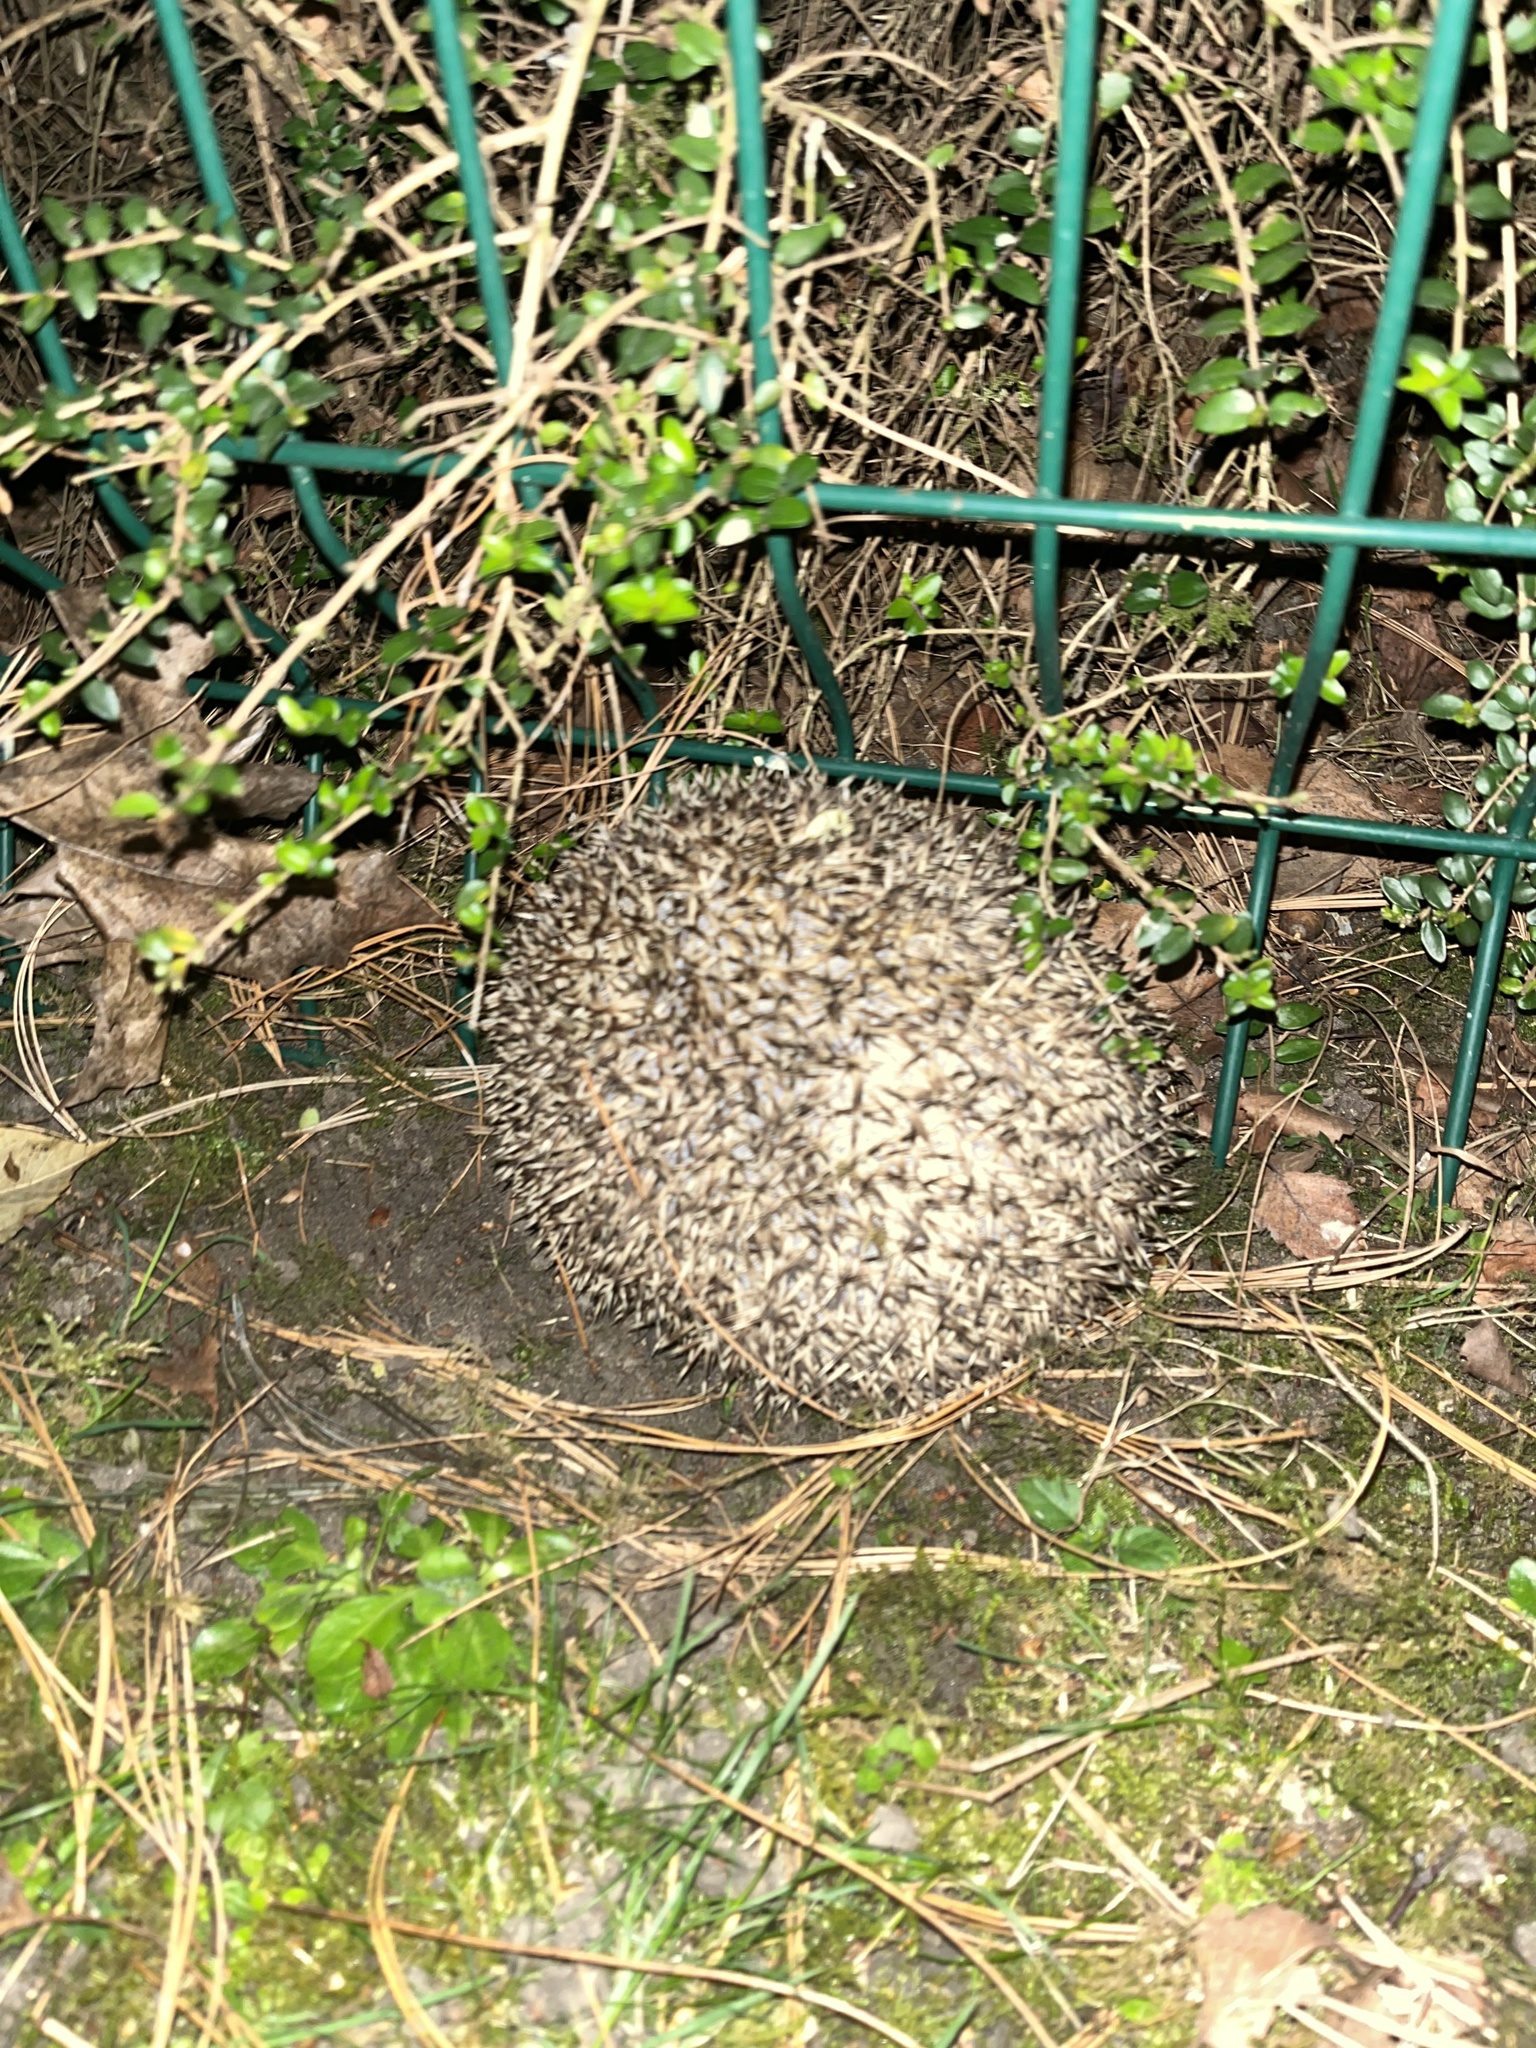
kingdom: Animalia
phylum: Chordata
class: Mammalia
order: Erinaceomorpha
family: Erinaceidae
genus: Erinaceus
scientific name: Erinaceus europaeus
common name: West european hedgehog
